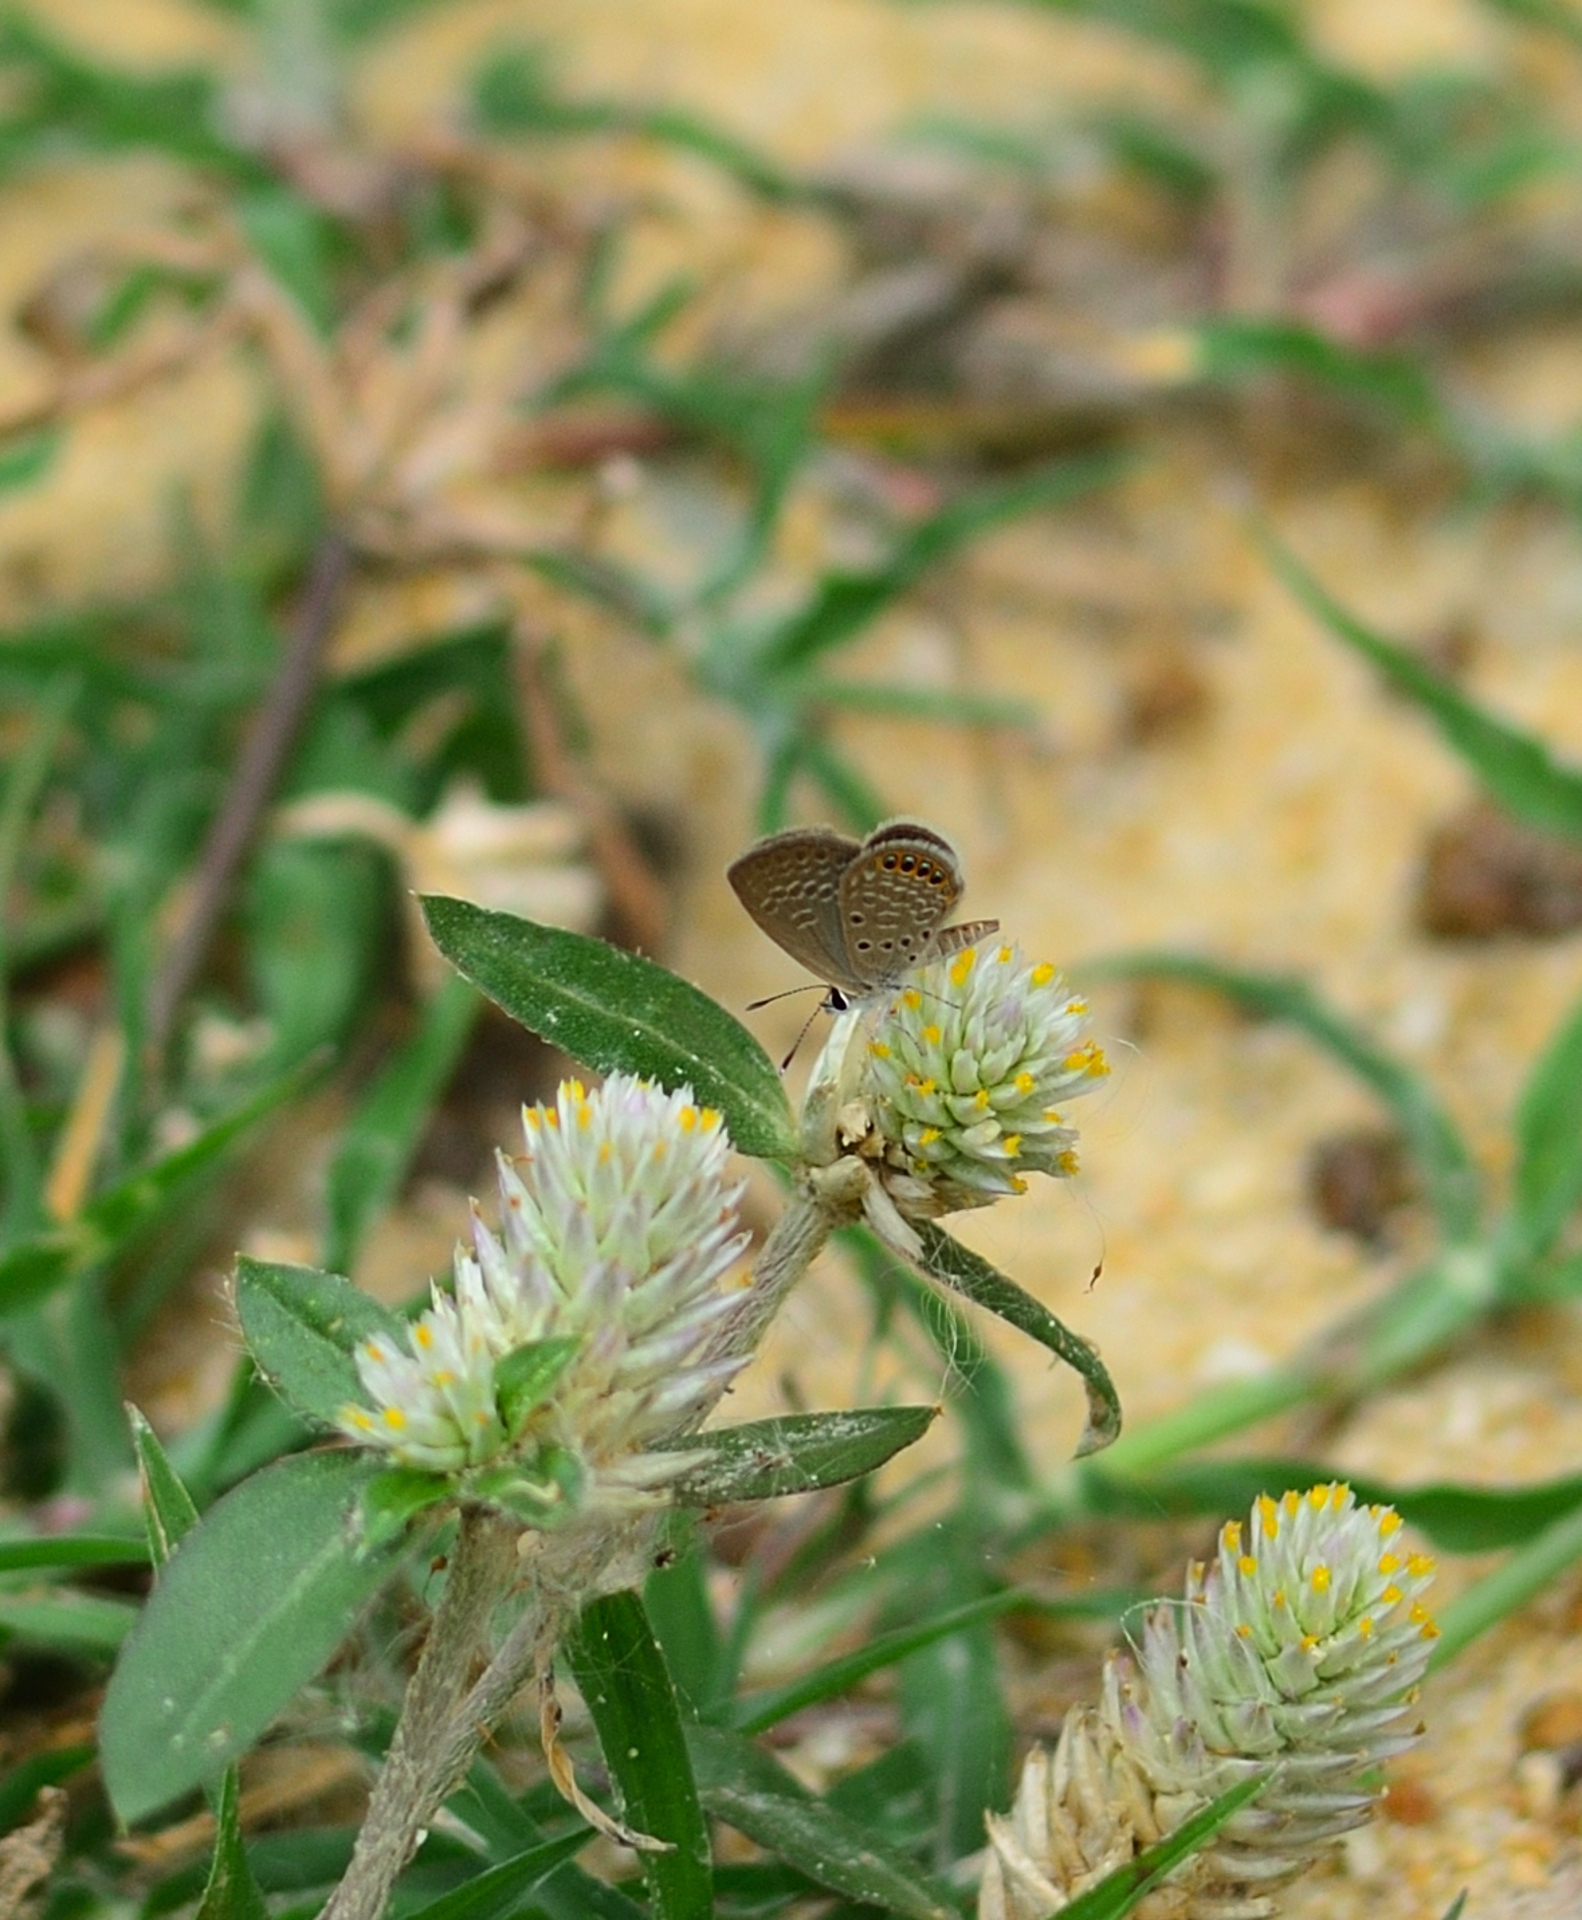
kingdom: Animalia
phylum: Arthropoda
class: Insecta
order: Lepidoptera
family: Lycaenidae
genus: Freyeria
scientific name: Freyeria putli
